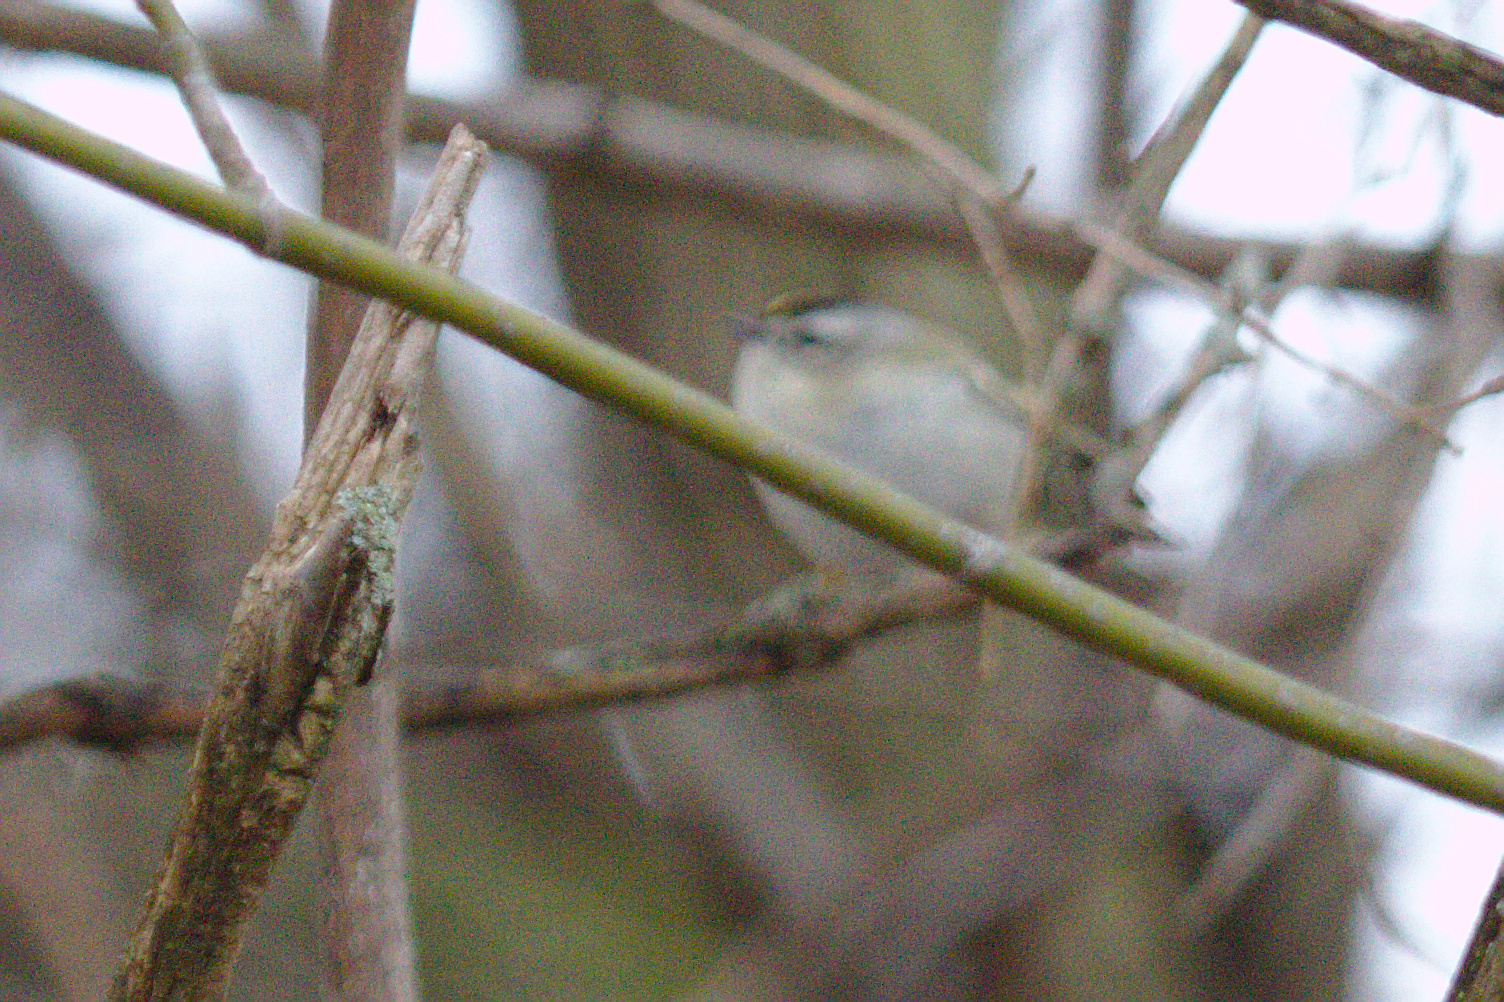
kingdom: Animalia
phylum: Chordata
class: Aves
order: Passeriformes
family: Regulidae
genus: Regulus
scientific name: Regulus satrapa
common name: Golden-crowned kinglet
